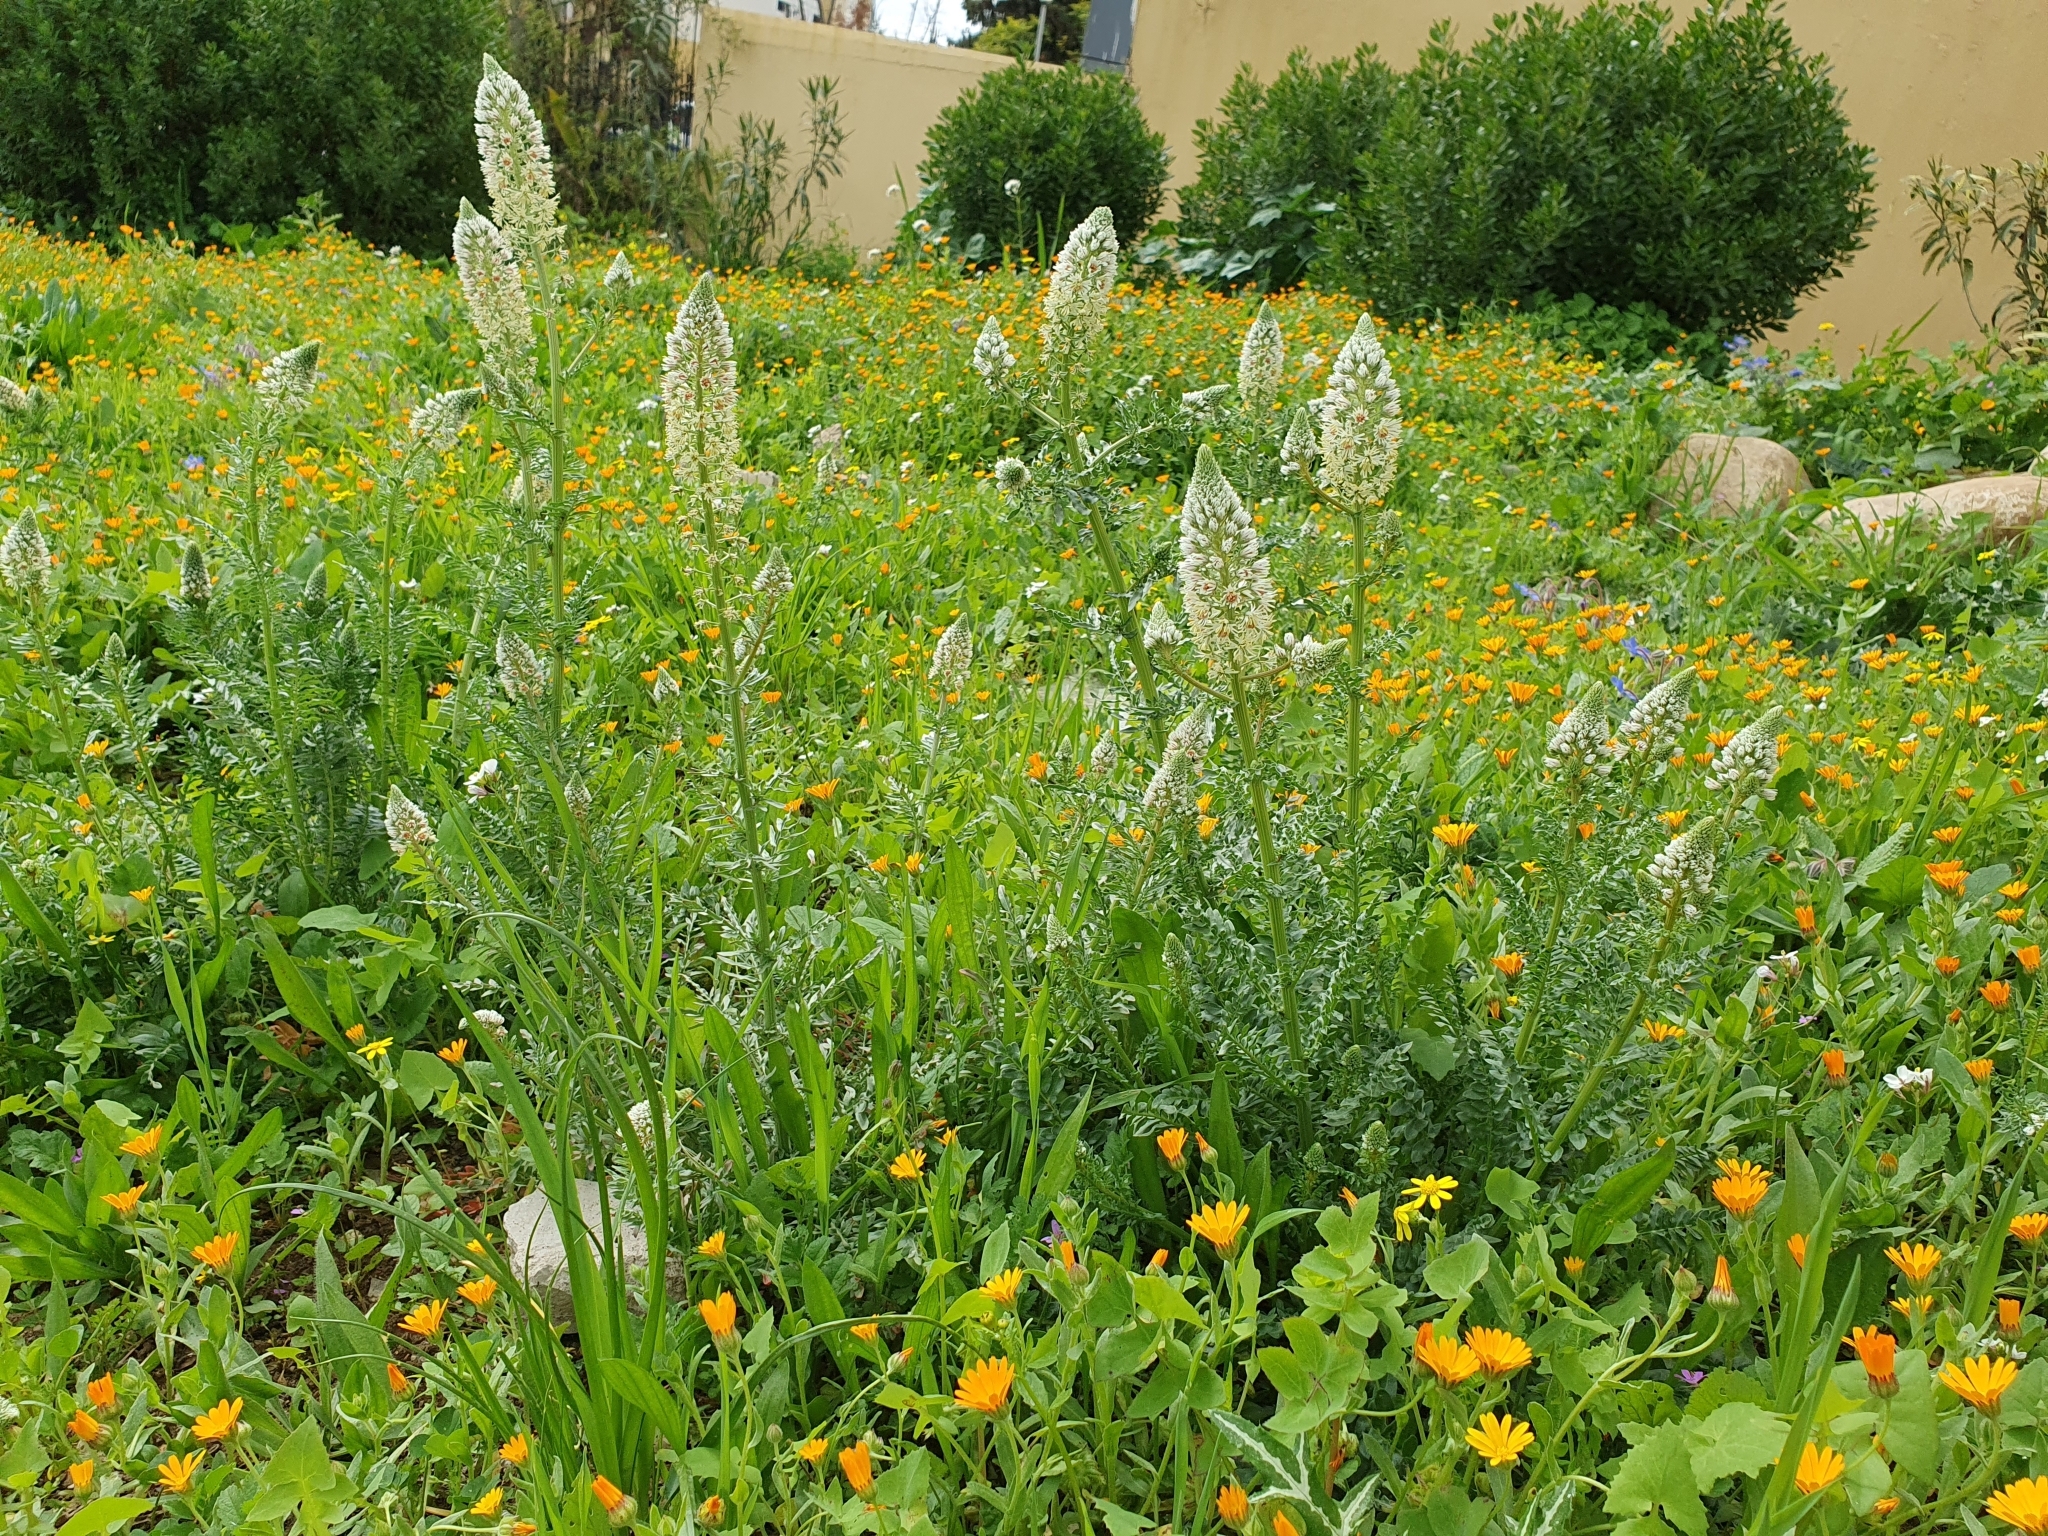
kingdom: Plantae
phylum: Tracheophyta
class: Magnoliopsida
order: Brassicales
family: Resedaceae
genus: Reseda
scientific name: Reseda alba
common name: White mignonette
